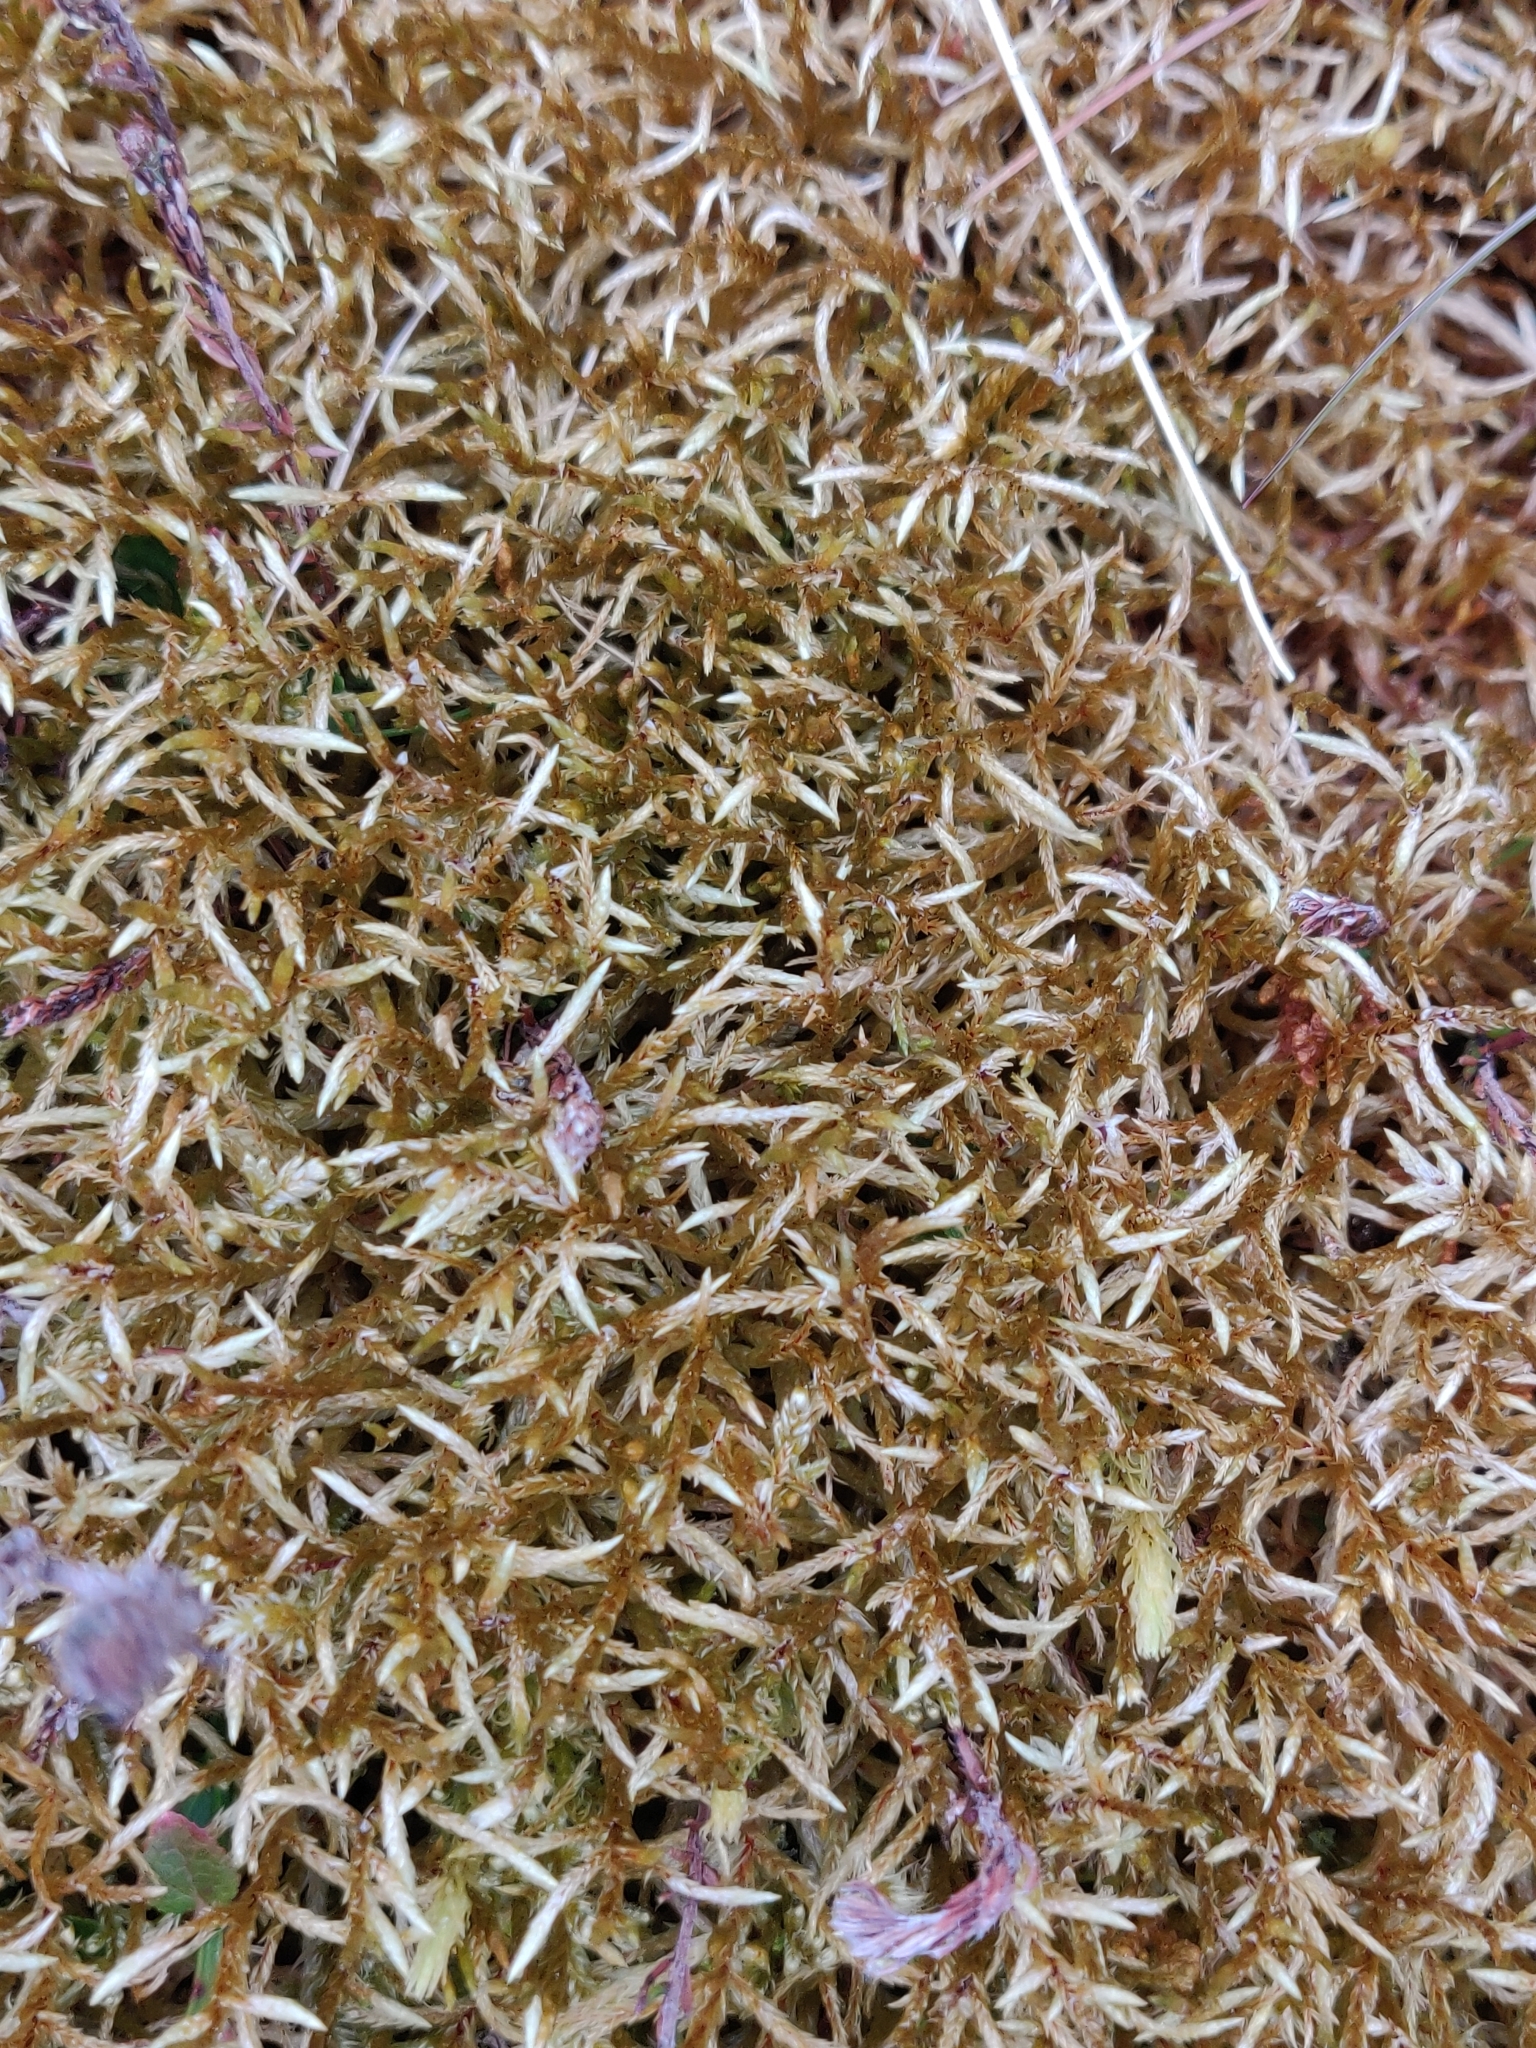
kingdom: Plantae
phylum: Bryophyta
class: Bryopsida
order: Hypnales
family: Hylocomiaceae
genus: Pleurozium
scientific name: Pleurozium schreberi
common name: Red-stemmed feather moss
